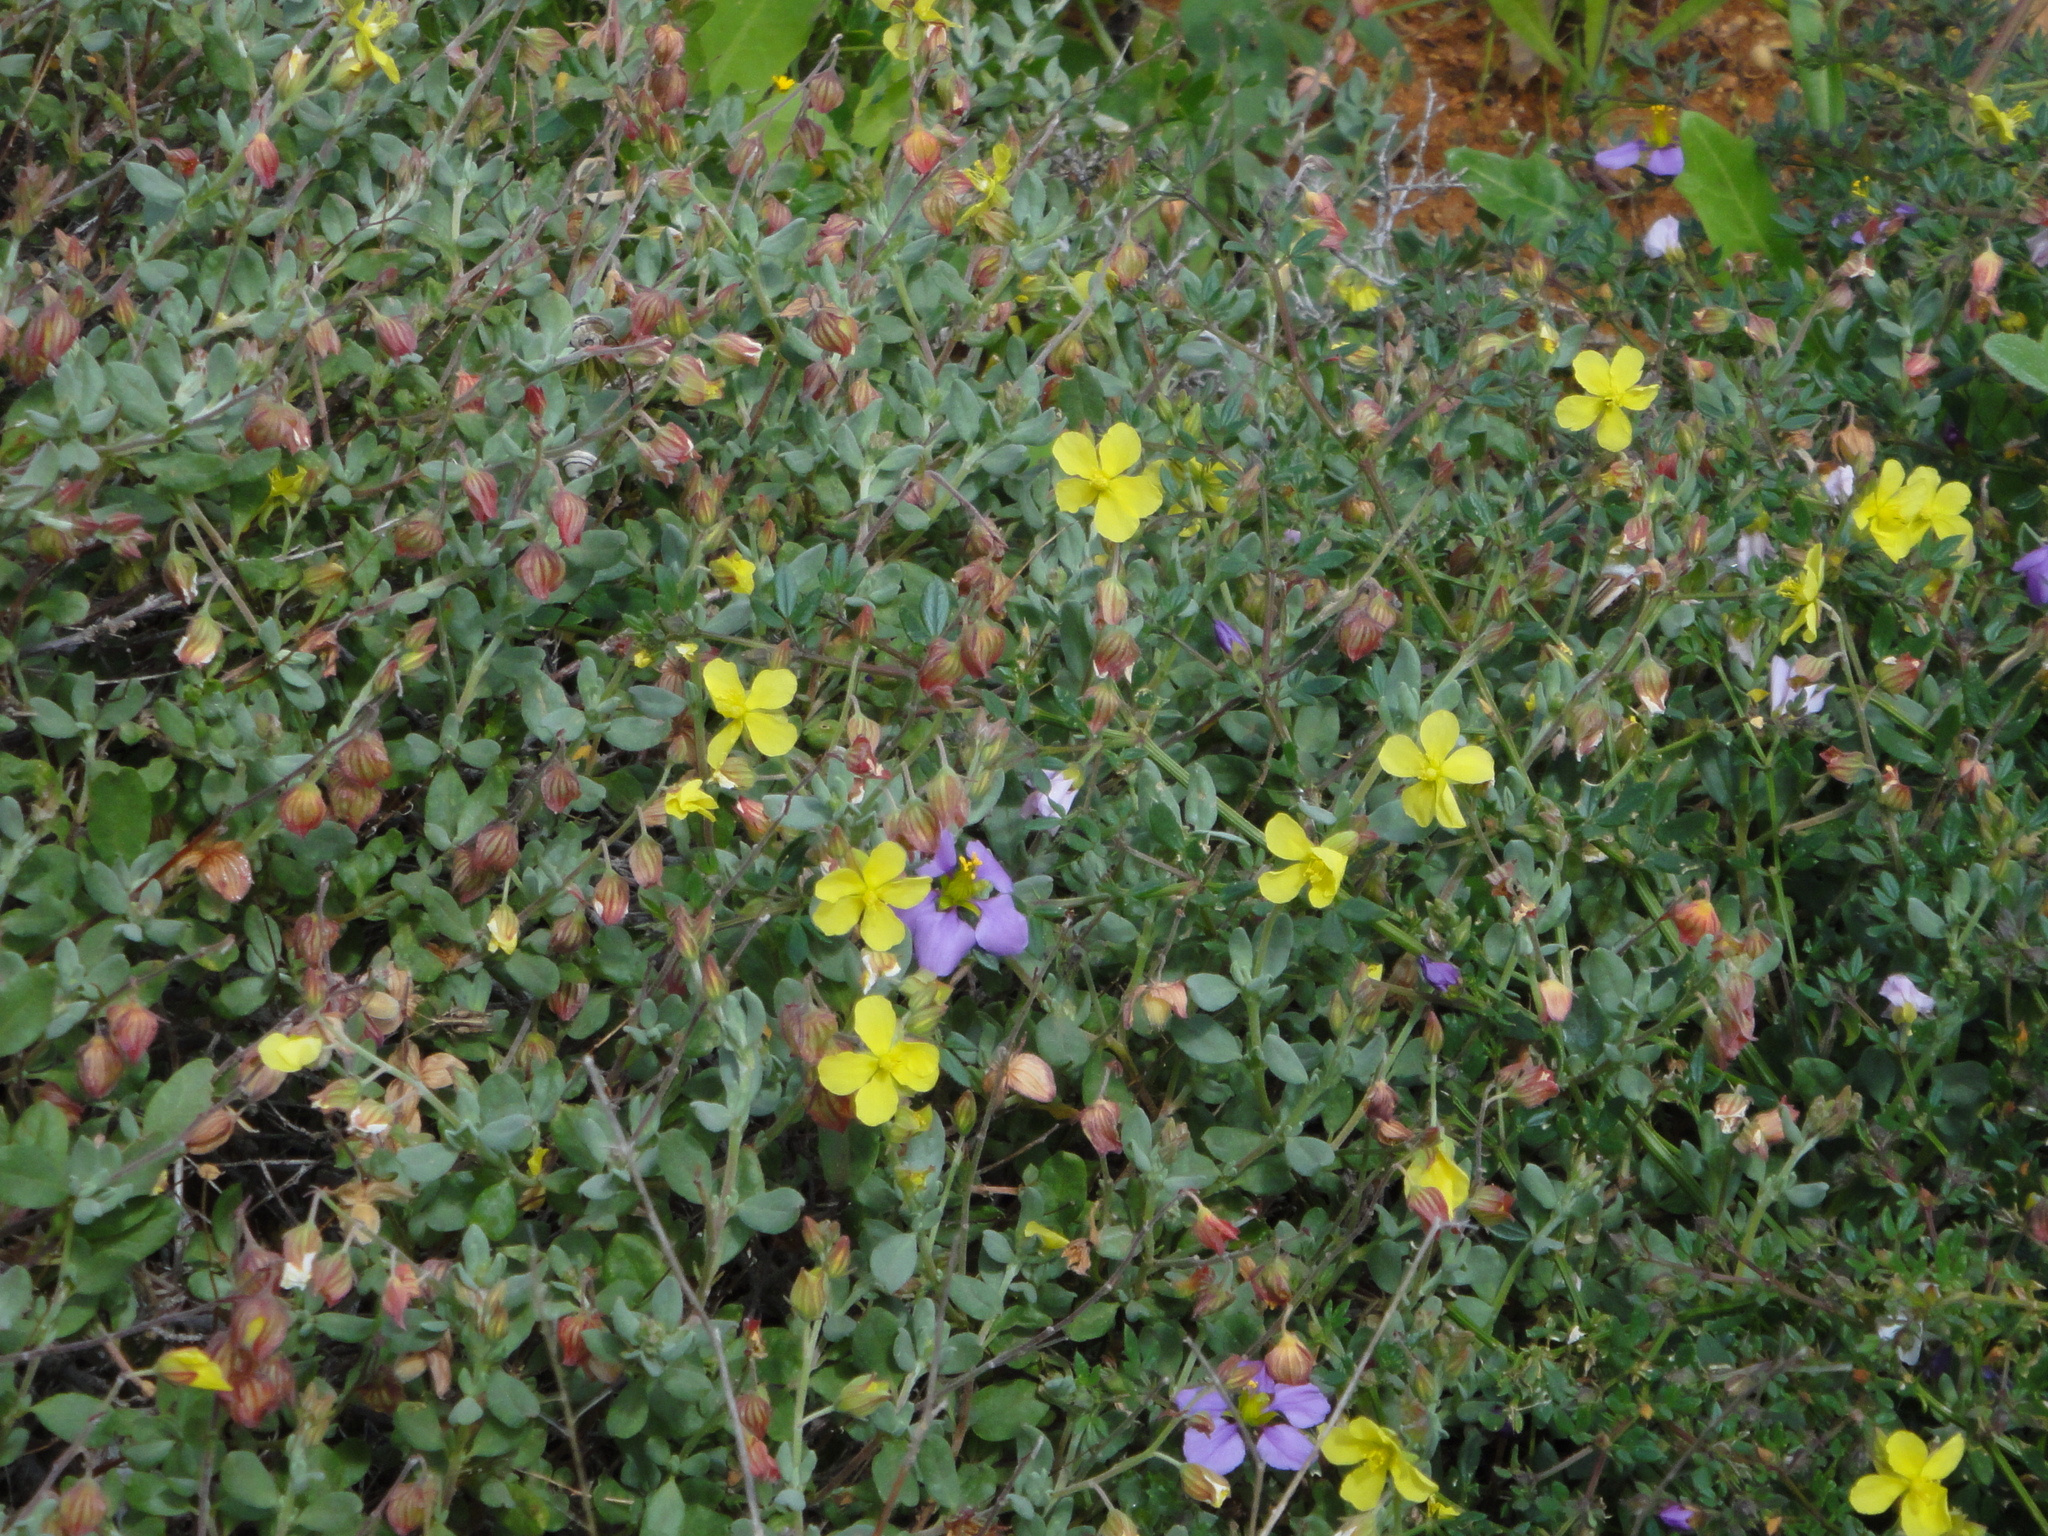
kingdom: Plantae
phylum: Tracheophyta
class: Magnoliopsida
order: Malvales
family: Cistaceae
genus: Helianthemum
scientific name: Helianthemum canariense
